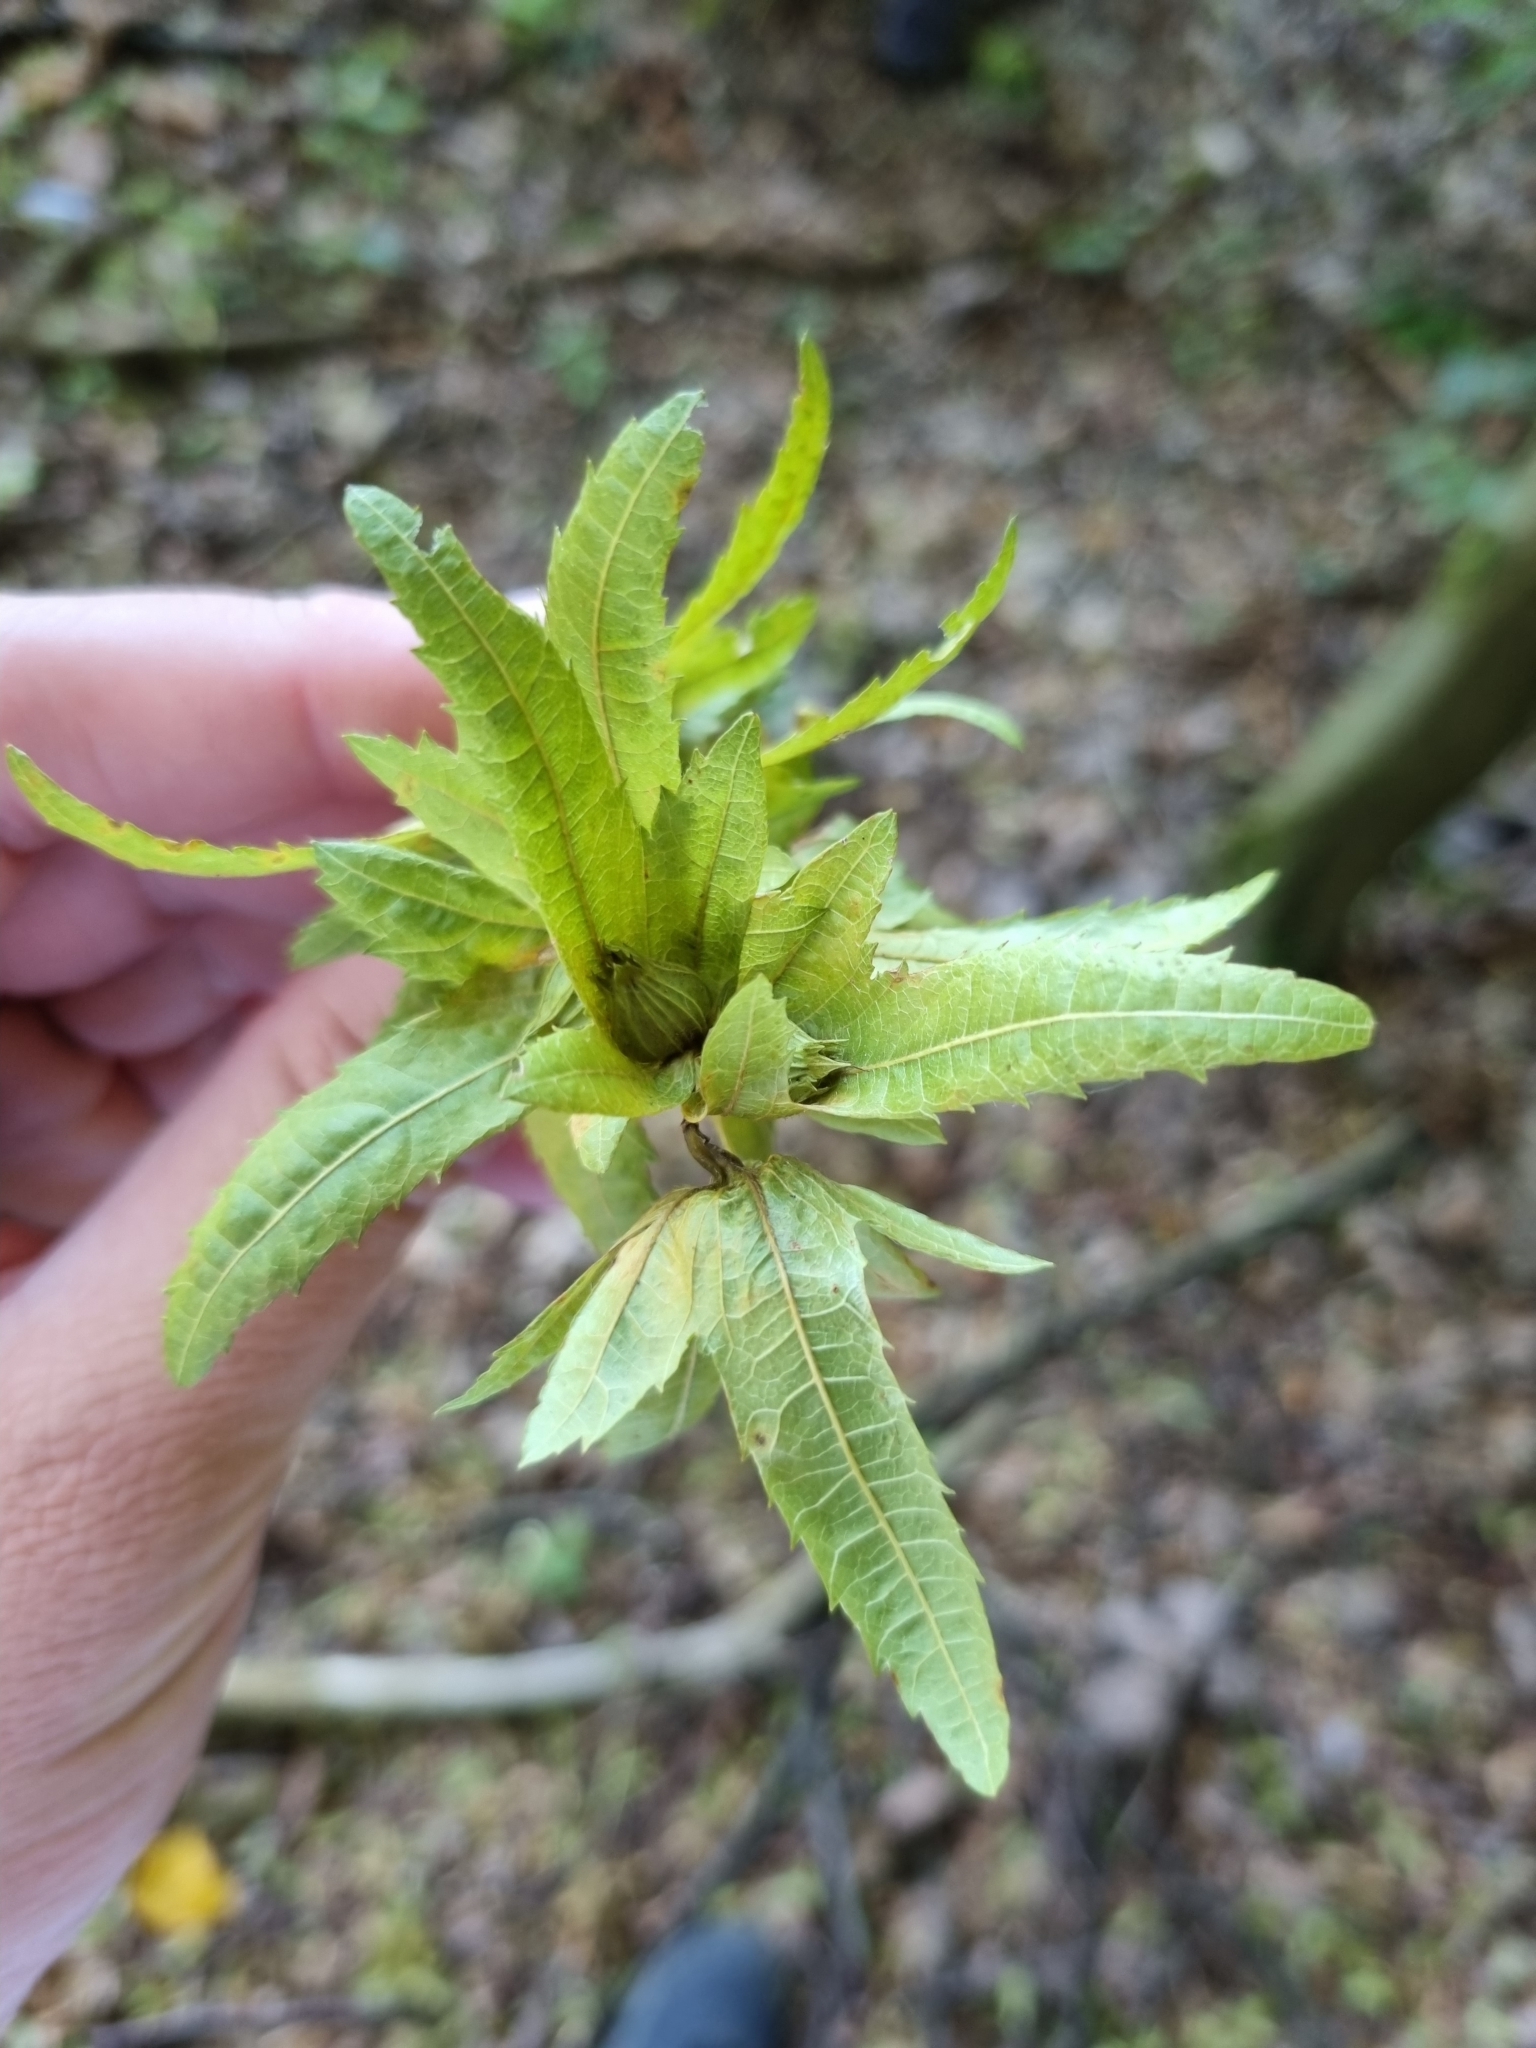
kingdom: Plantae
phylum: Tracheophyta
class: Magnoliopsida
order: Fagales
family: Betulaceae
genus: Carpinus
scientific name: Carpinus betulus
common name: Hornbeam
